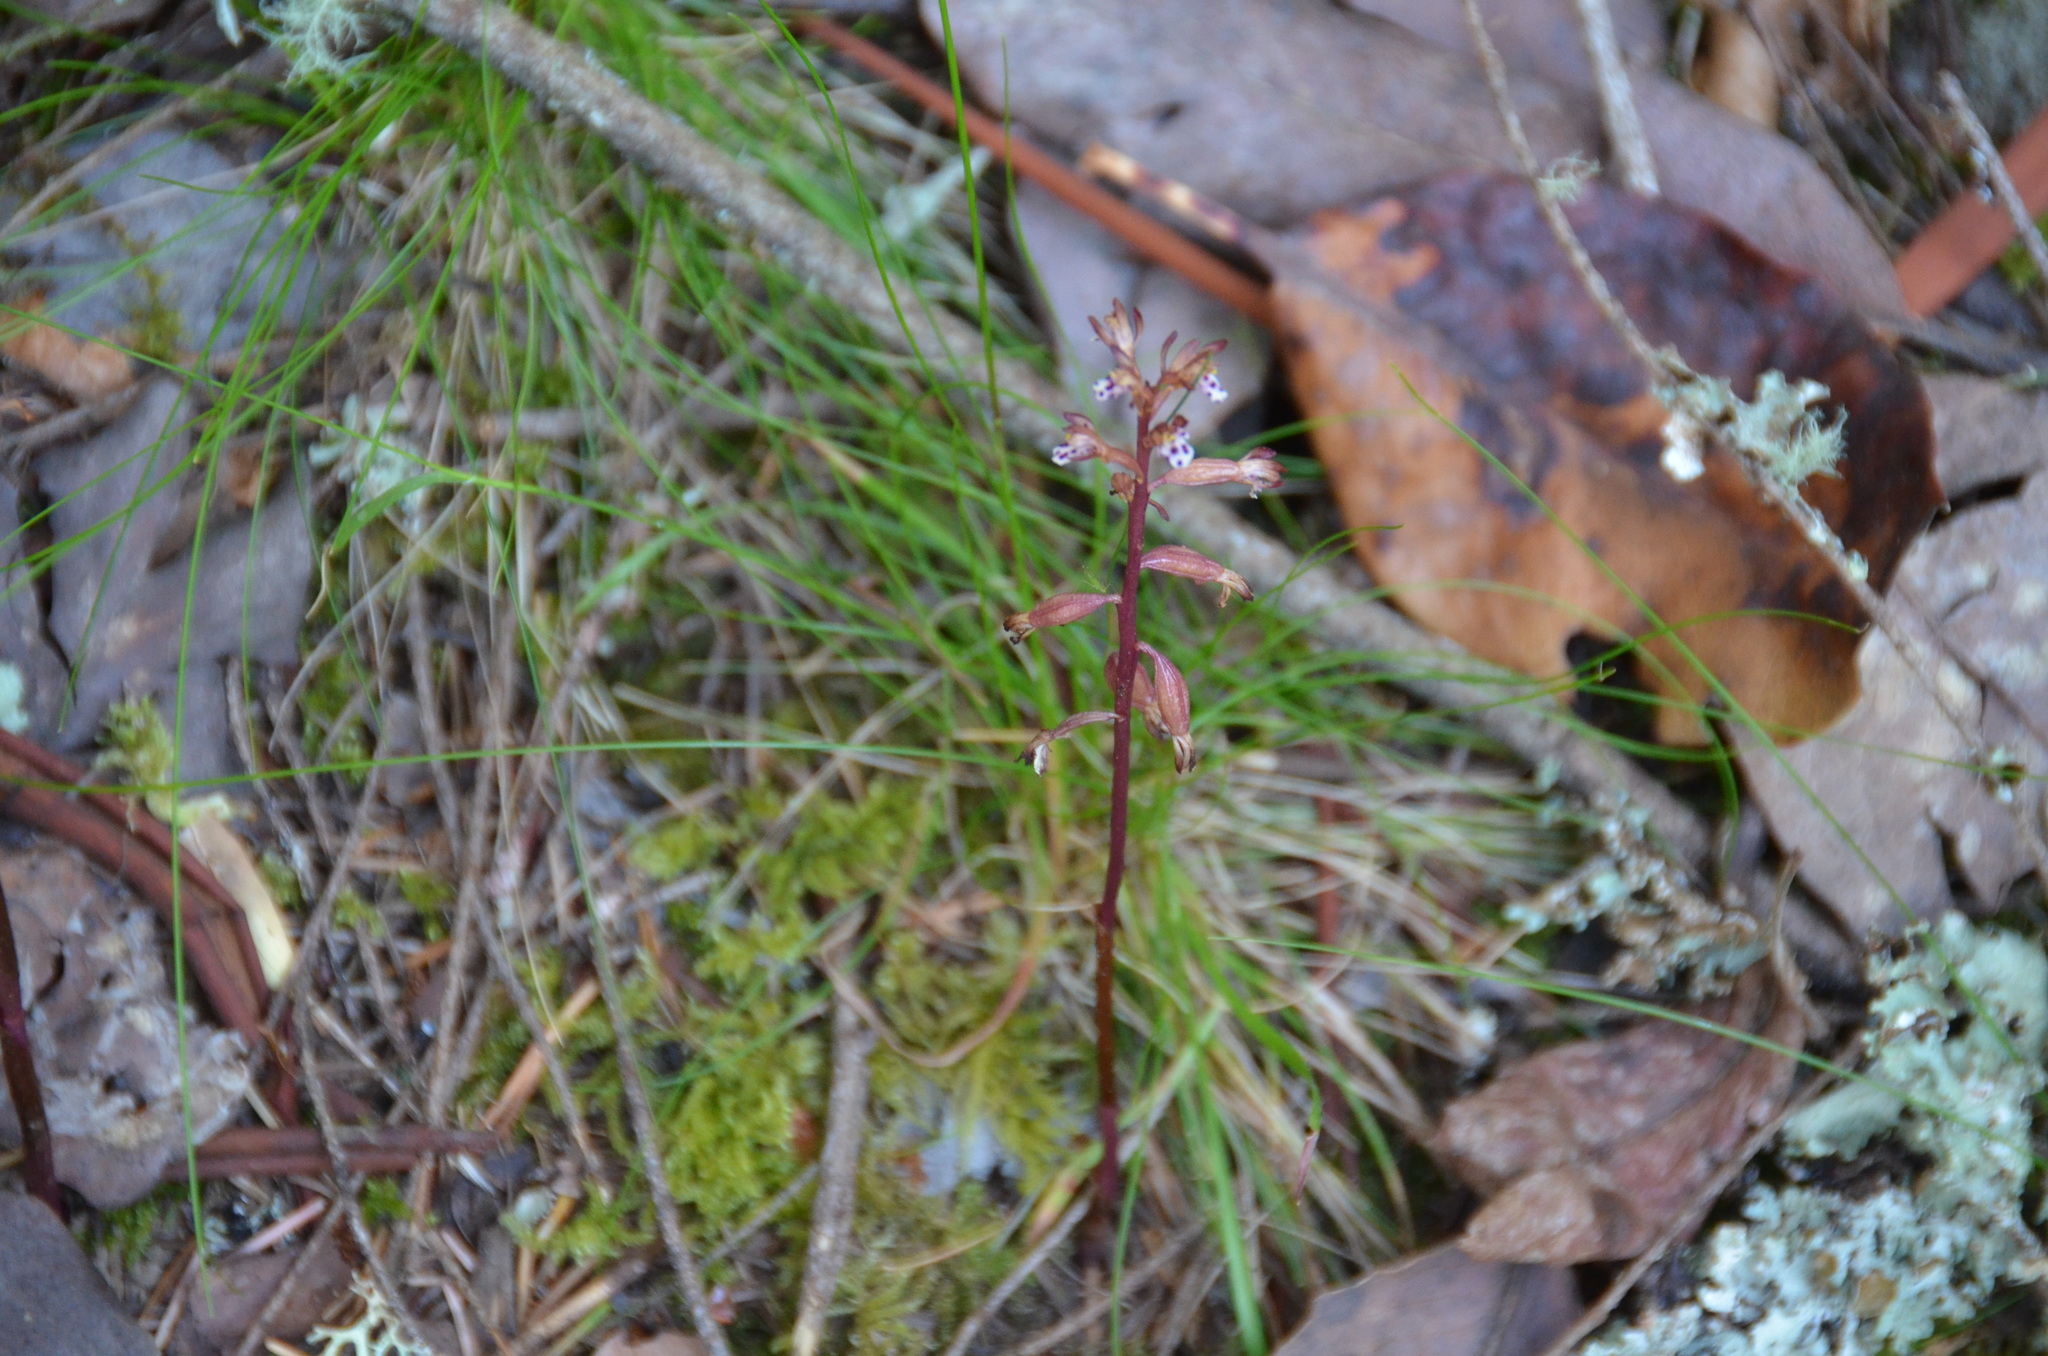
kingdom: Plantae
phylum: Tracheophyta
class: Liliopsida
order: Asparagales
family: Orchidaceae
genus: Corallorhiza
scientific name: Corallorhiza maculata
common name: Spotted coralroot
